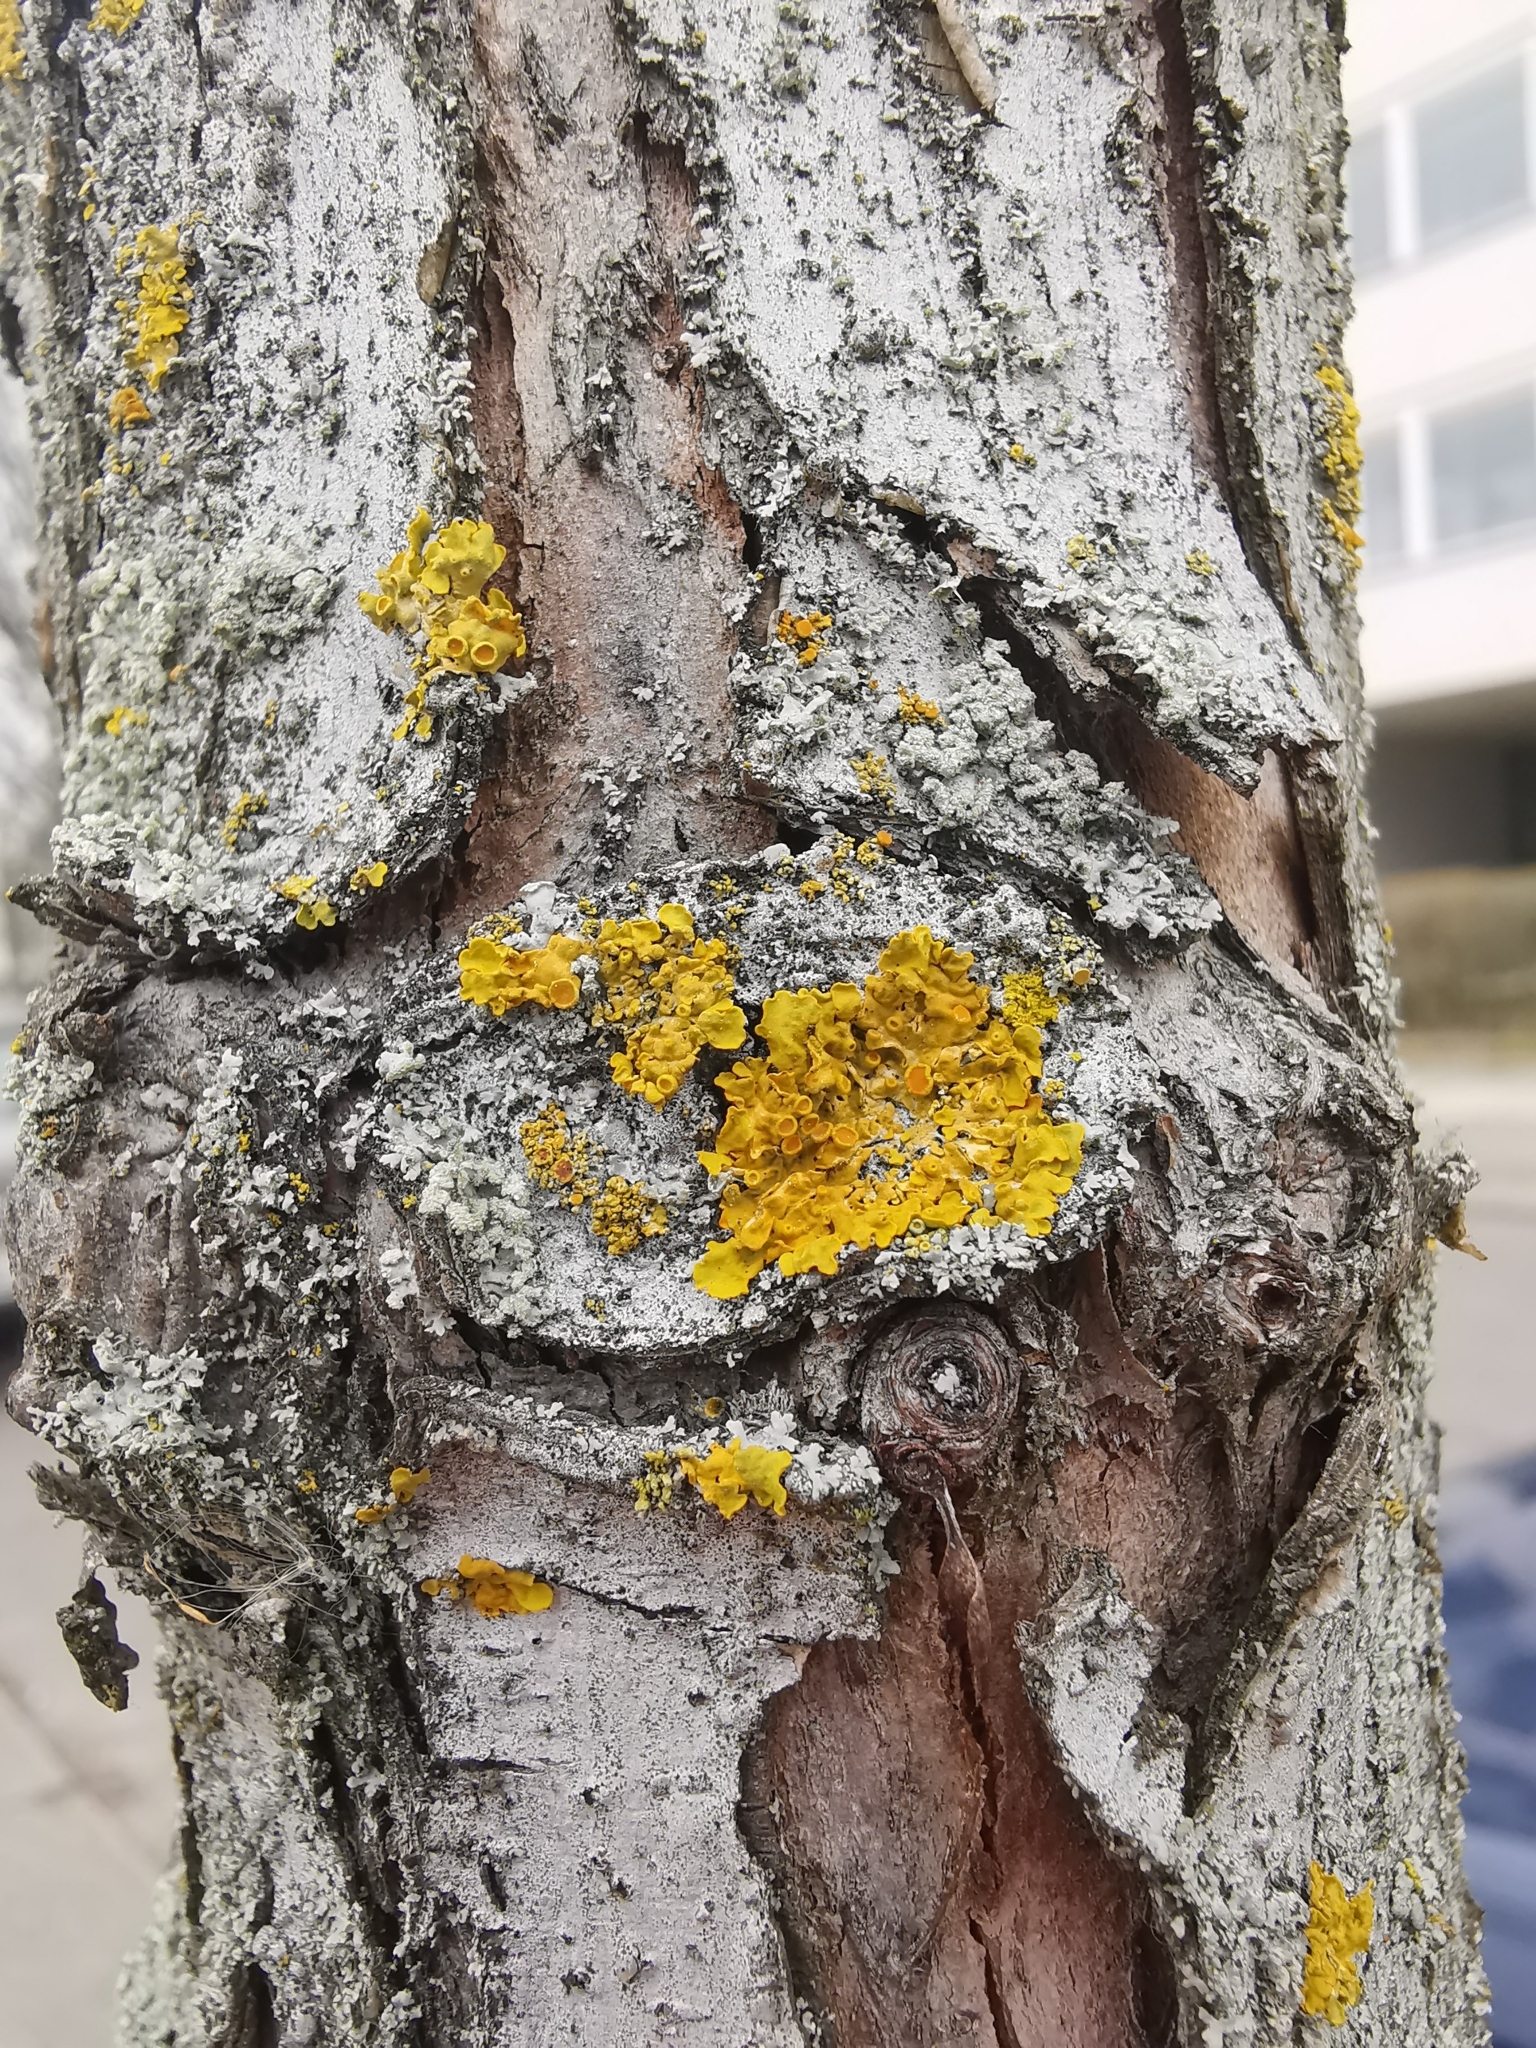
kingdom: Fungi
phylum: Ascomycota
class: Lecanoromycetes
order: Teloschistales
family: Teloschistaceae
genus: Xanthoria
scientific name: Xanthoria parietina
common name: Common orange lichen
